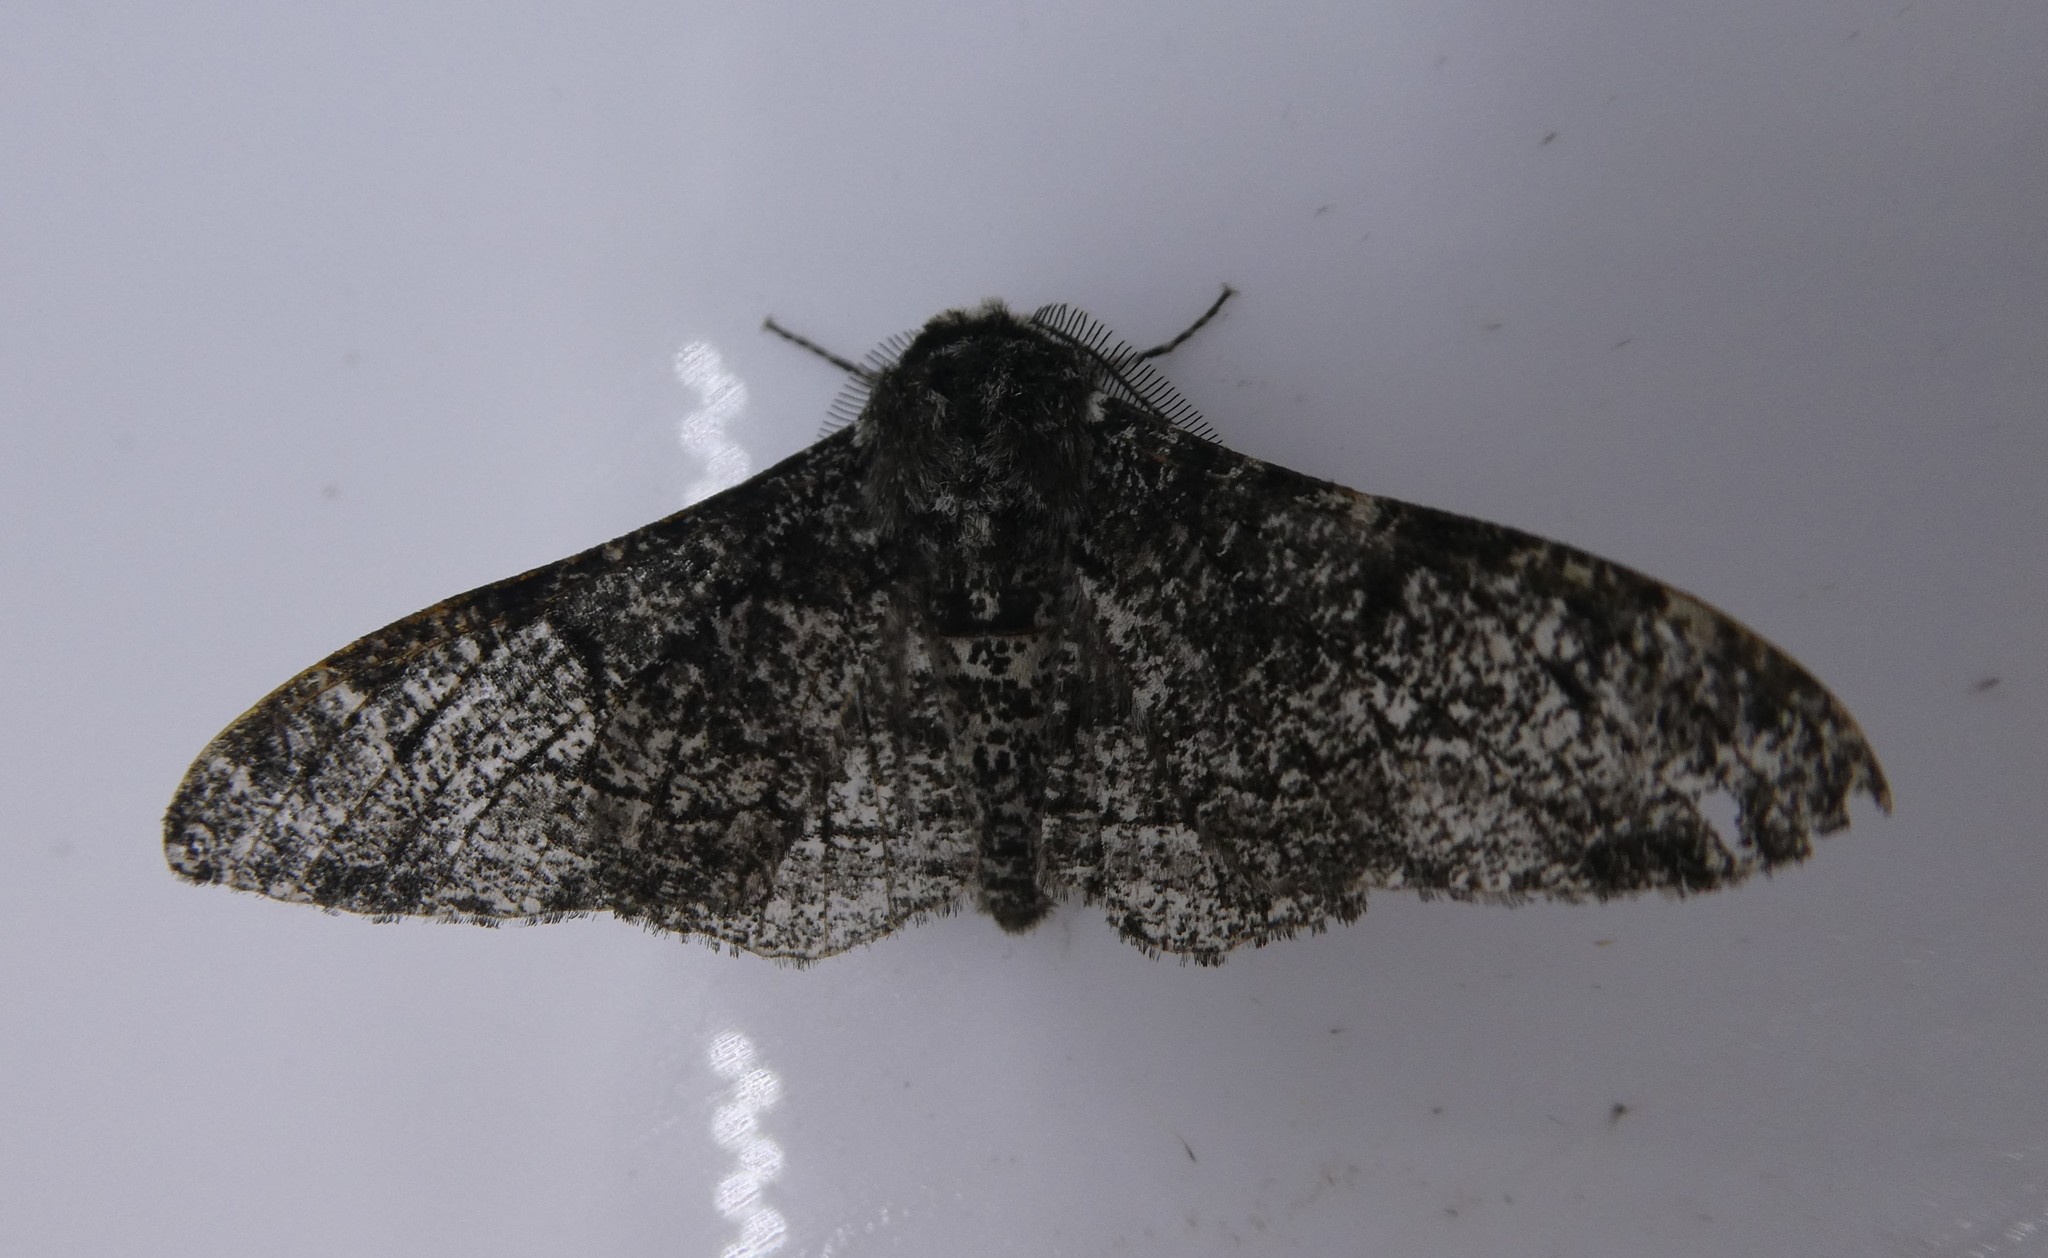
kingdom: Animalia
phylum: Arthropoda
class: Insecta
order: Lepidoptera
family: Geometridae
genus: Biston
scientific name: Biston betularia
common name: Peppered moth
